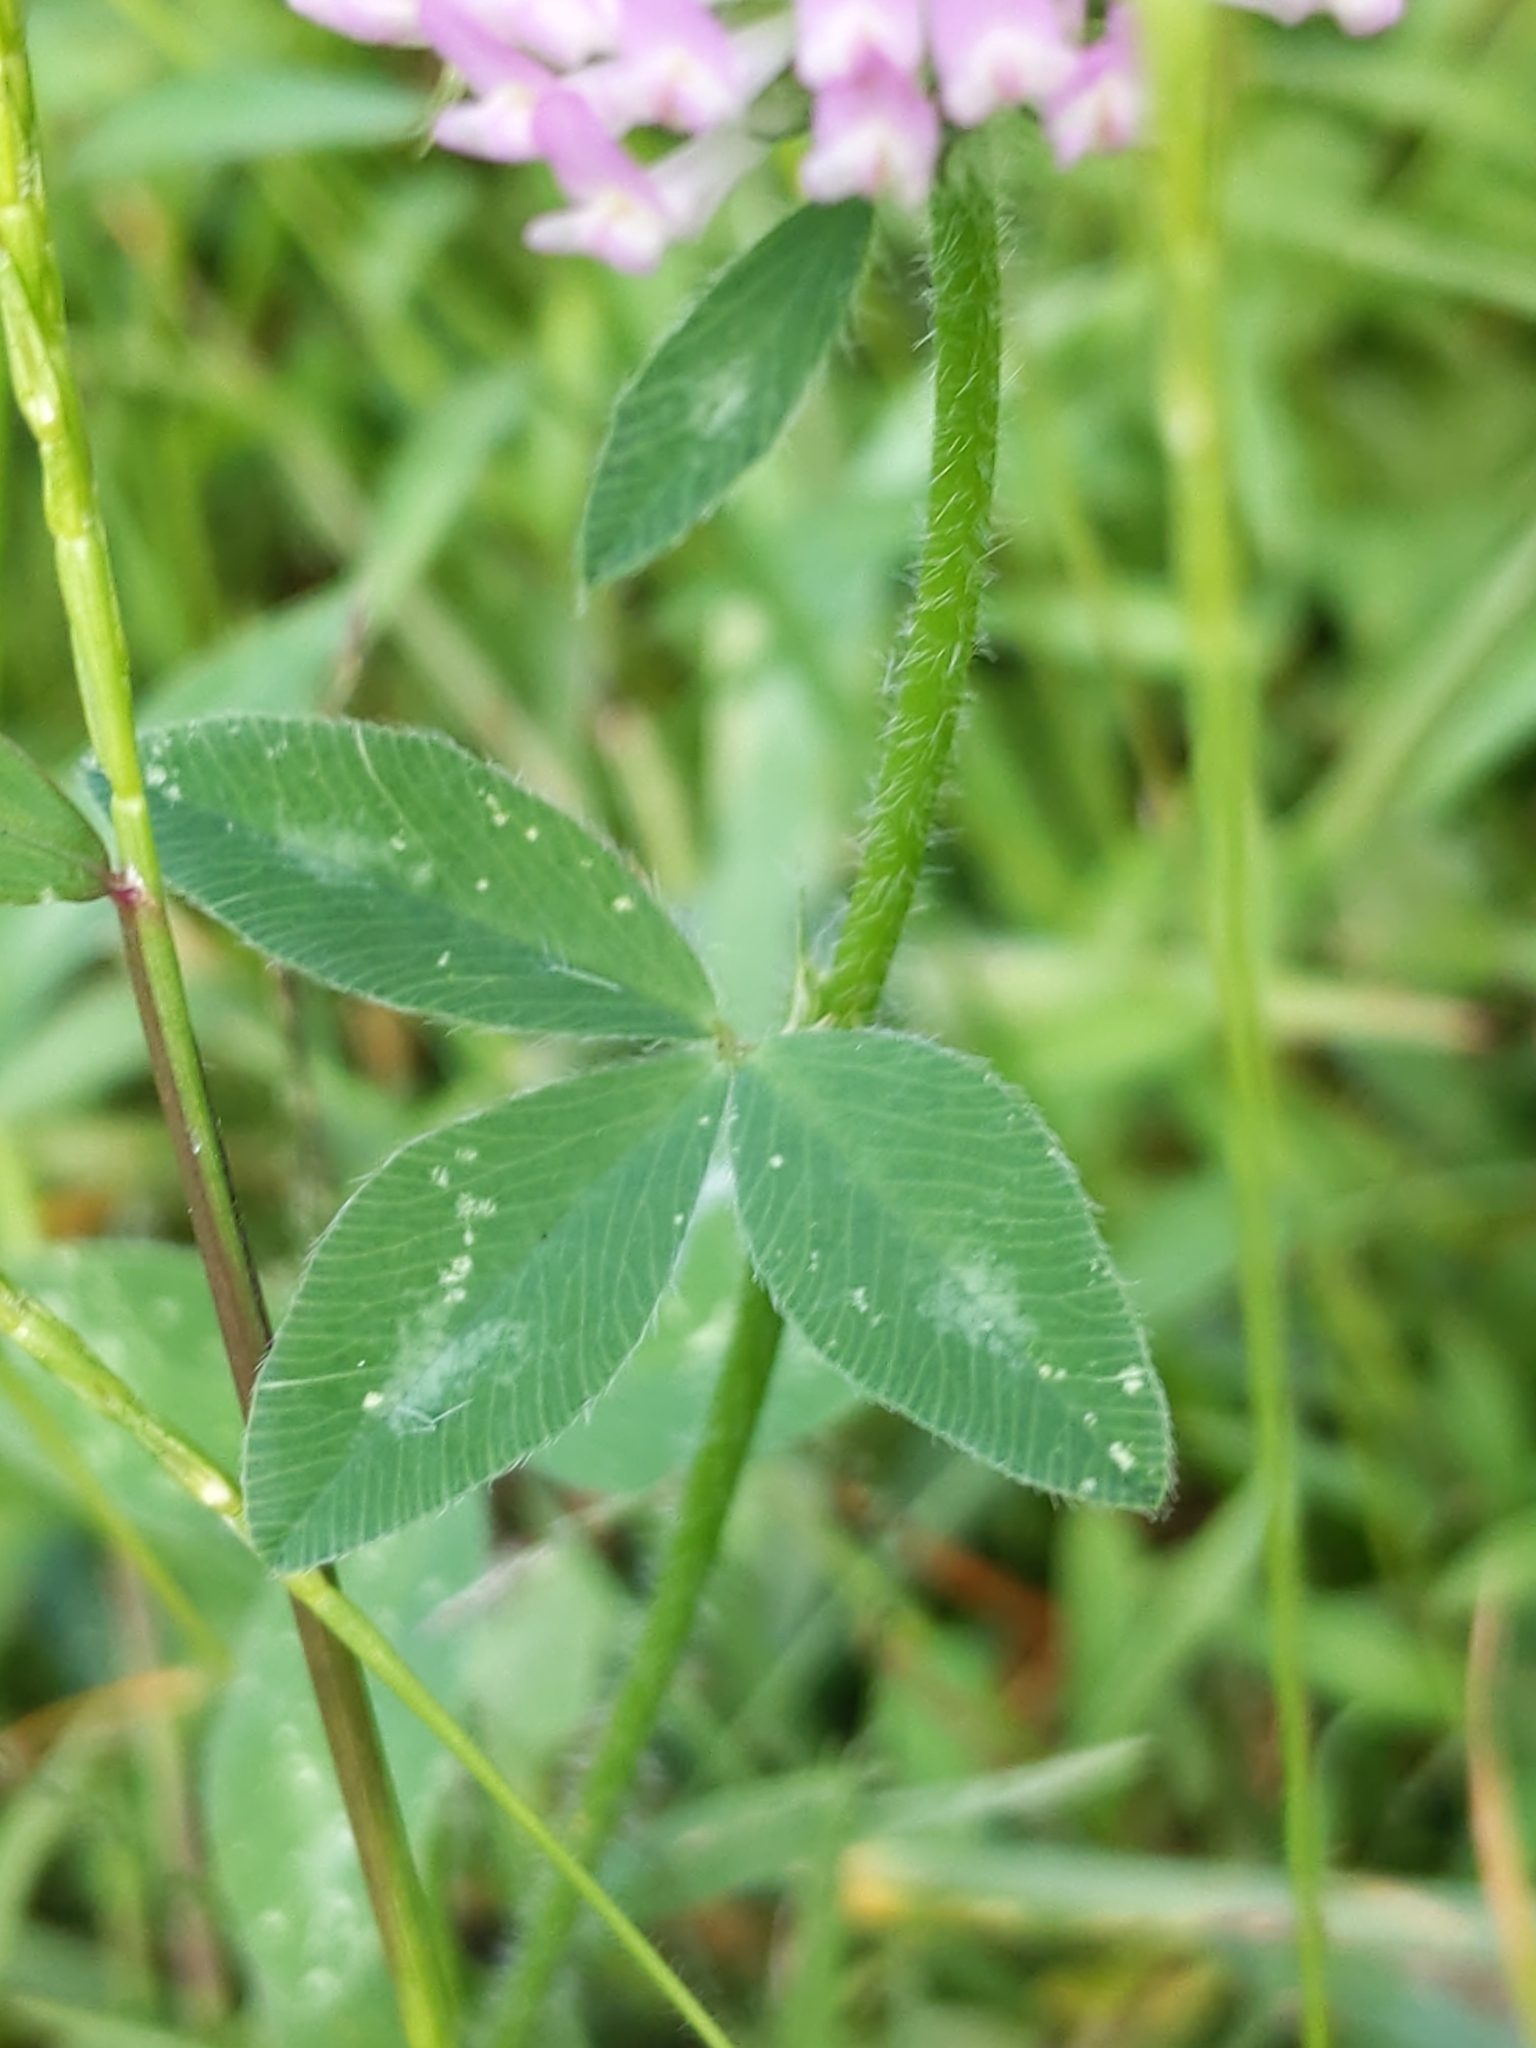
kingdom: Plantae
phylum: Tracheophyta
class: Magnoliopsida
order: Fabales
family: Fabaceae
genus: Trifolium
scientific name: Trifolium pratense
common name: Red clover
